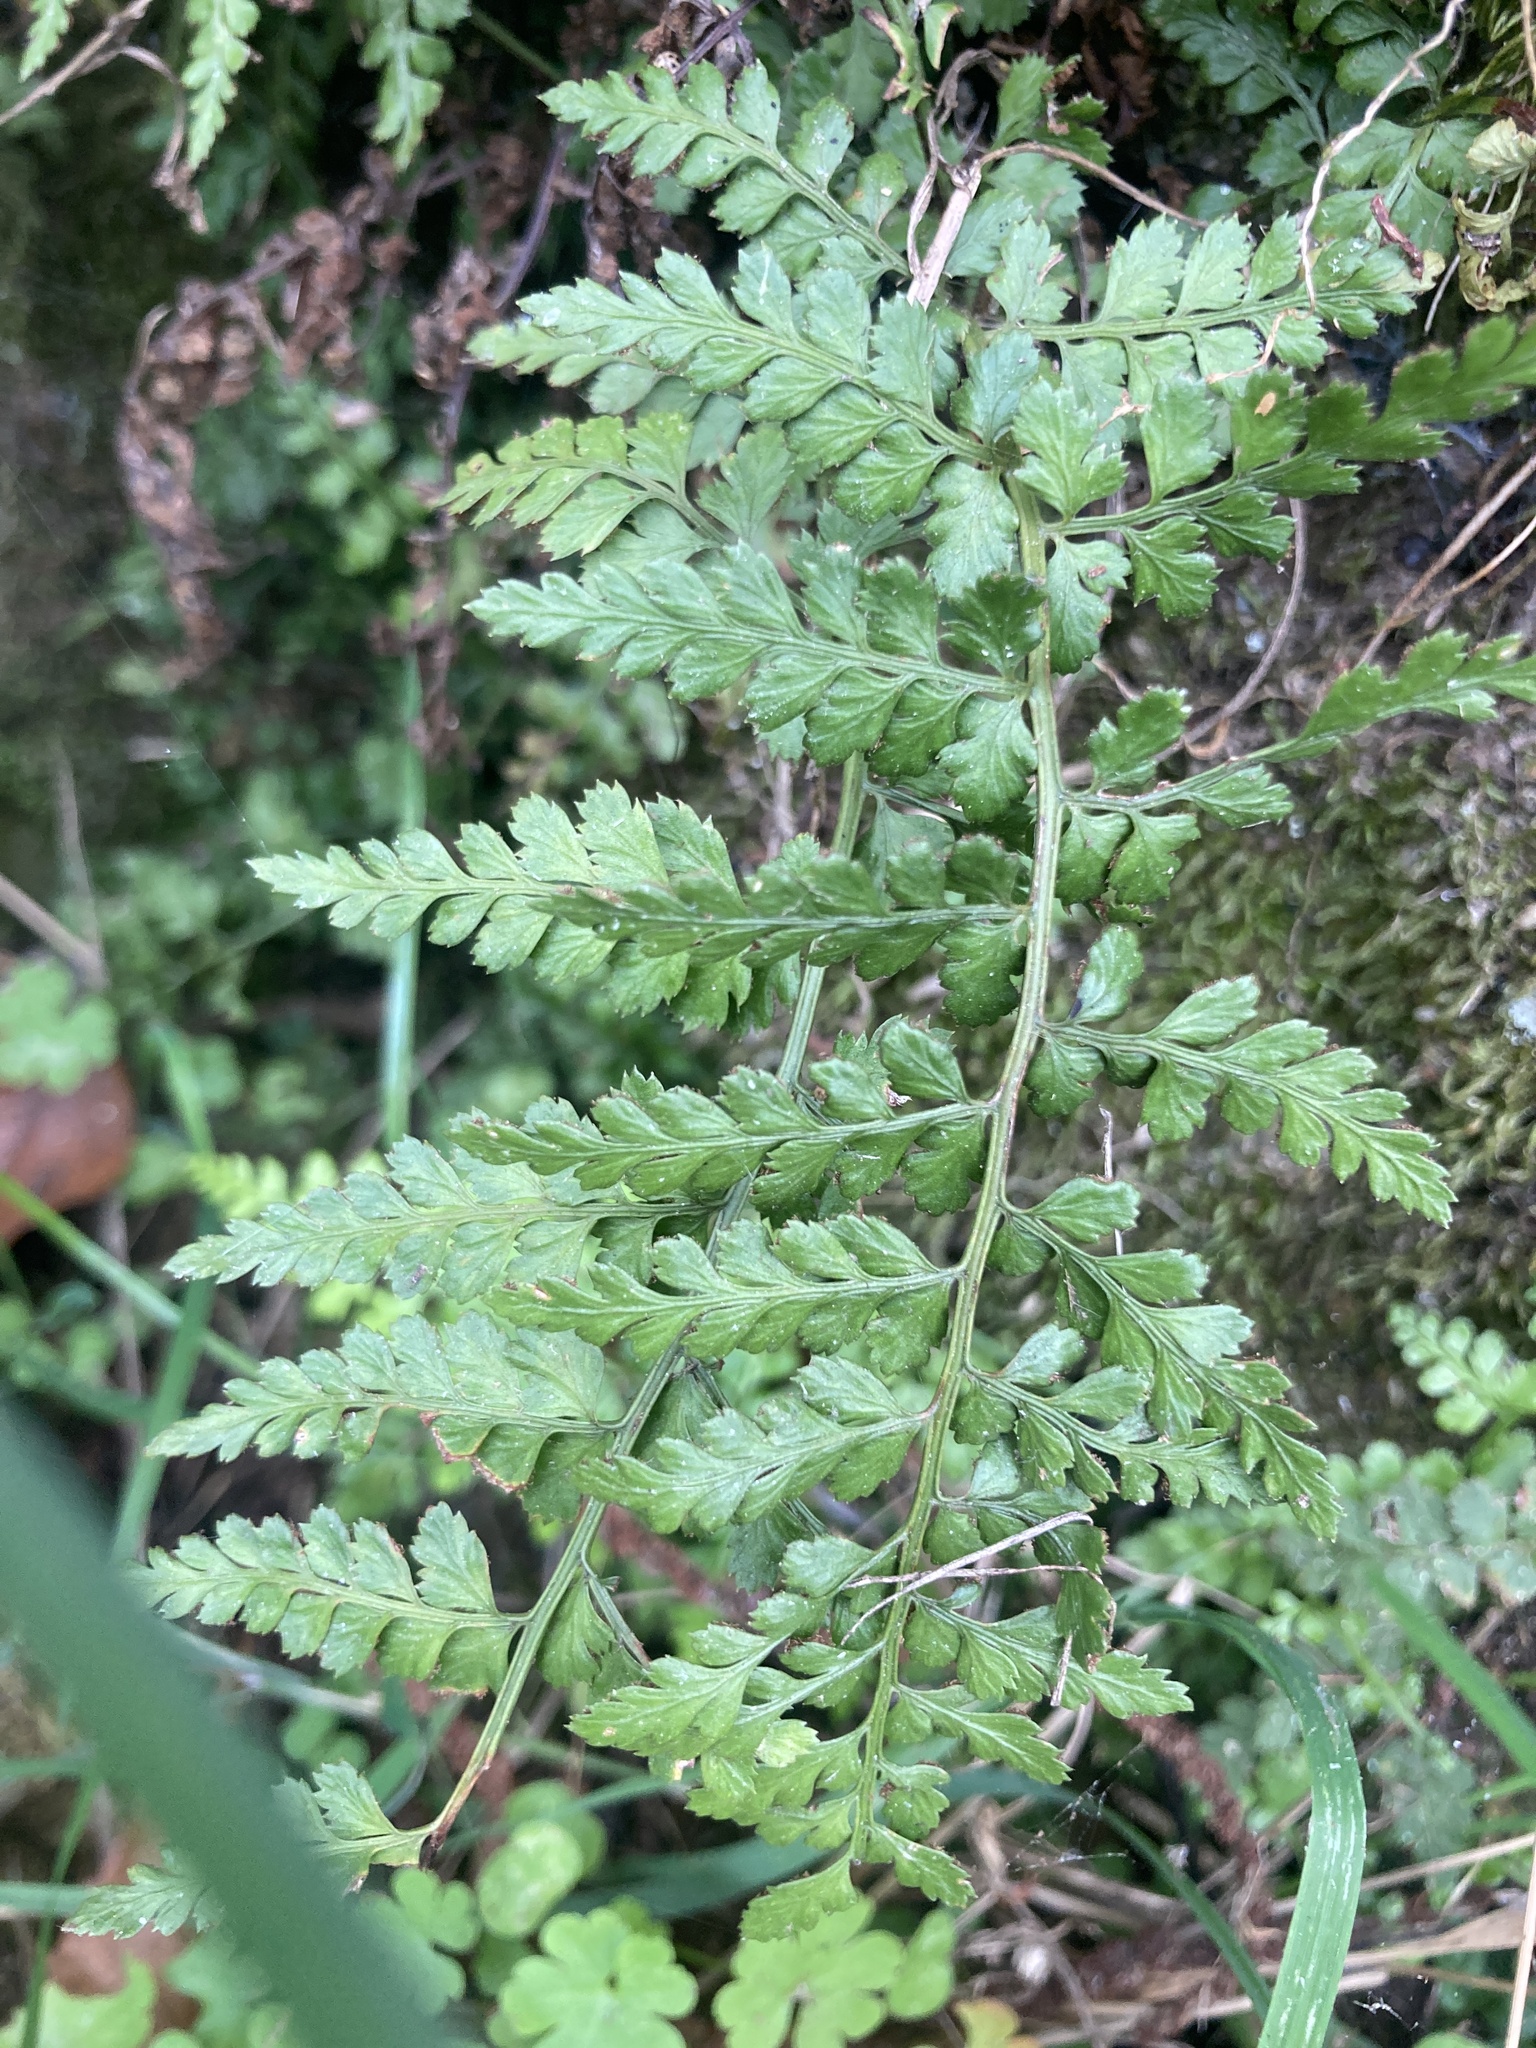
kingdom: Plantae
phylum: Tracheophyta
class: Polypodiopsida
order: Polypodiales
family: Aspleniaceae
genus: Asplenium
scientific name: Asplenium obovatum
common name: Lanceolate spleenwort
